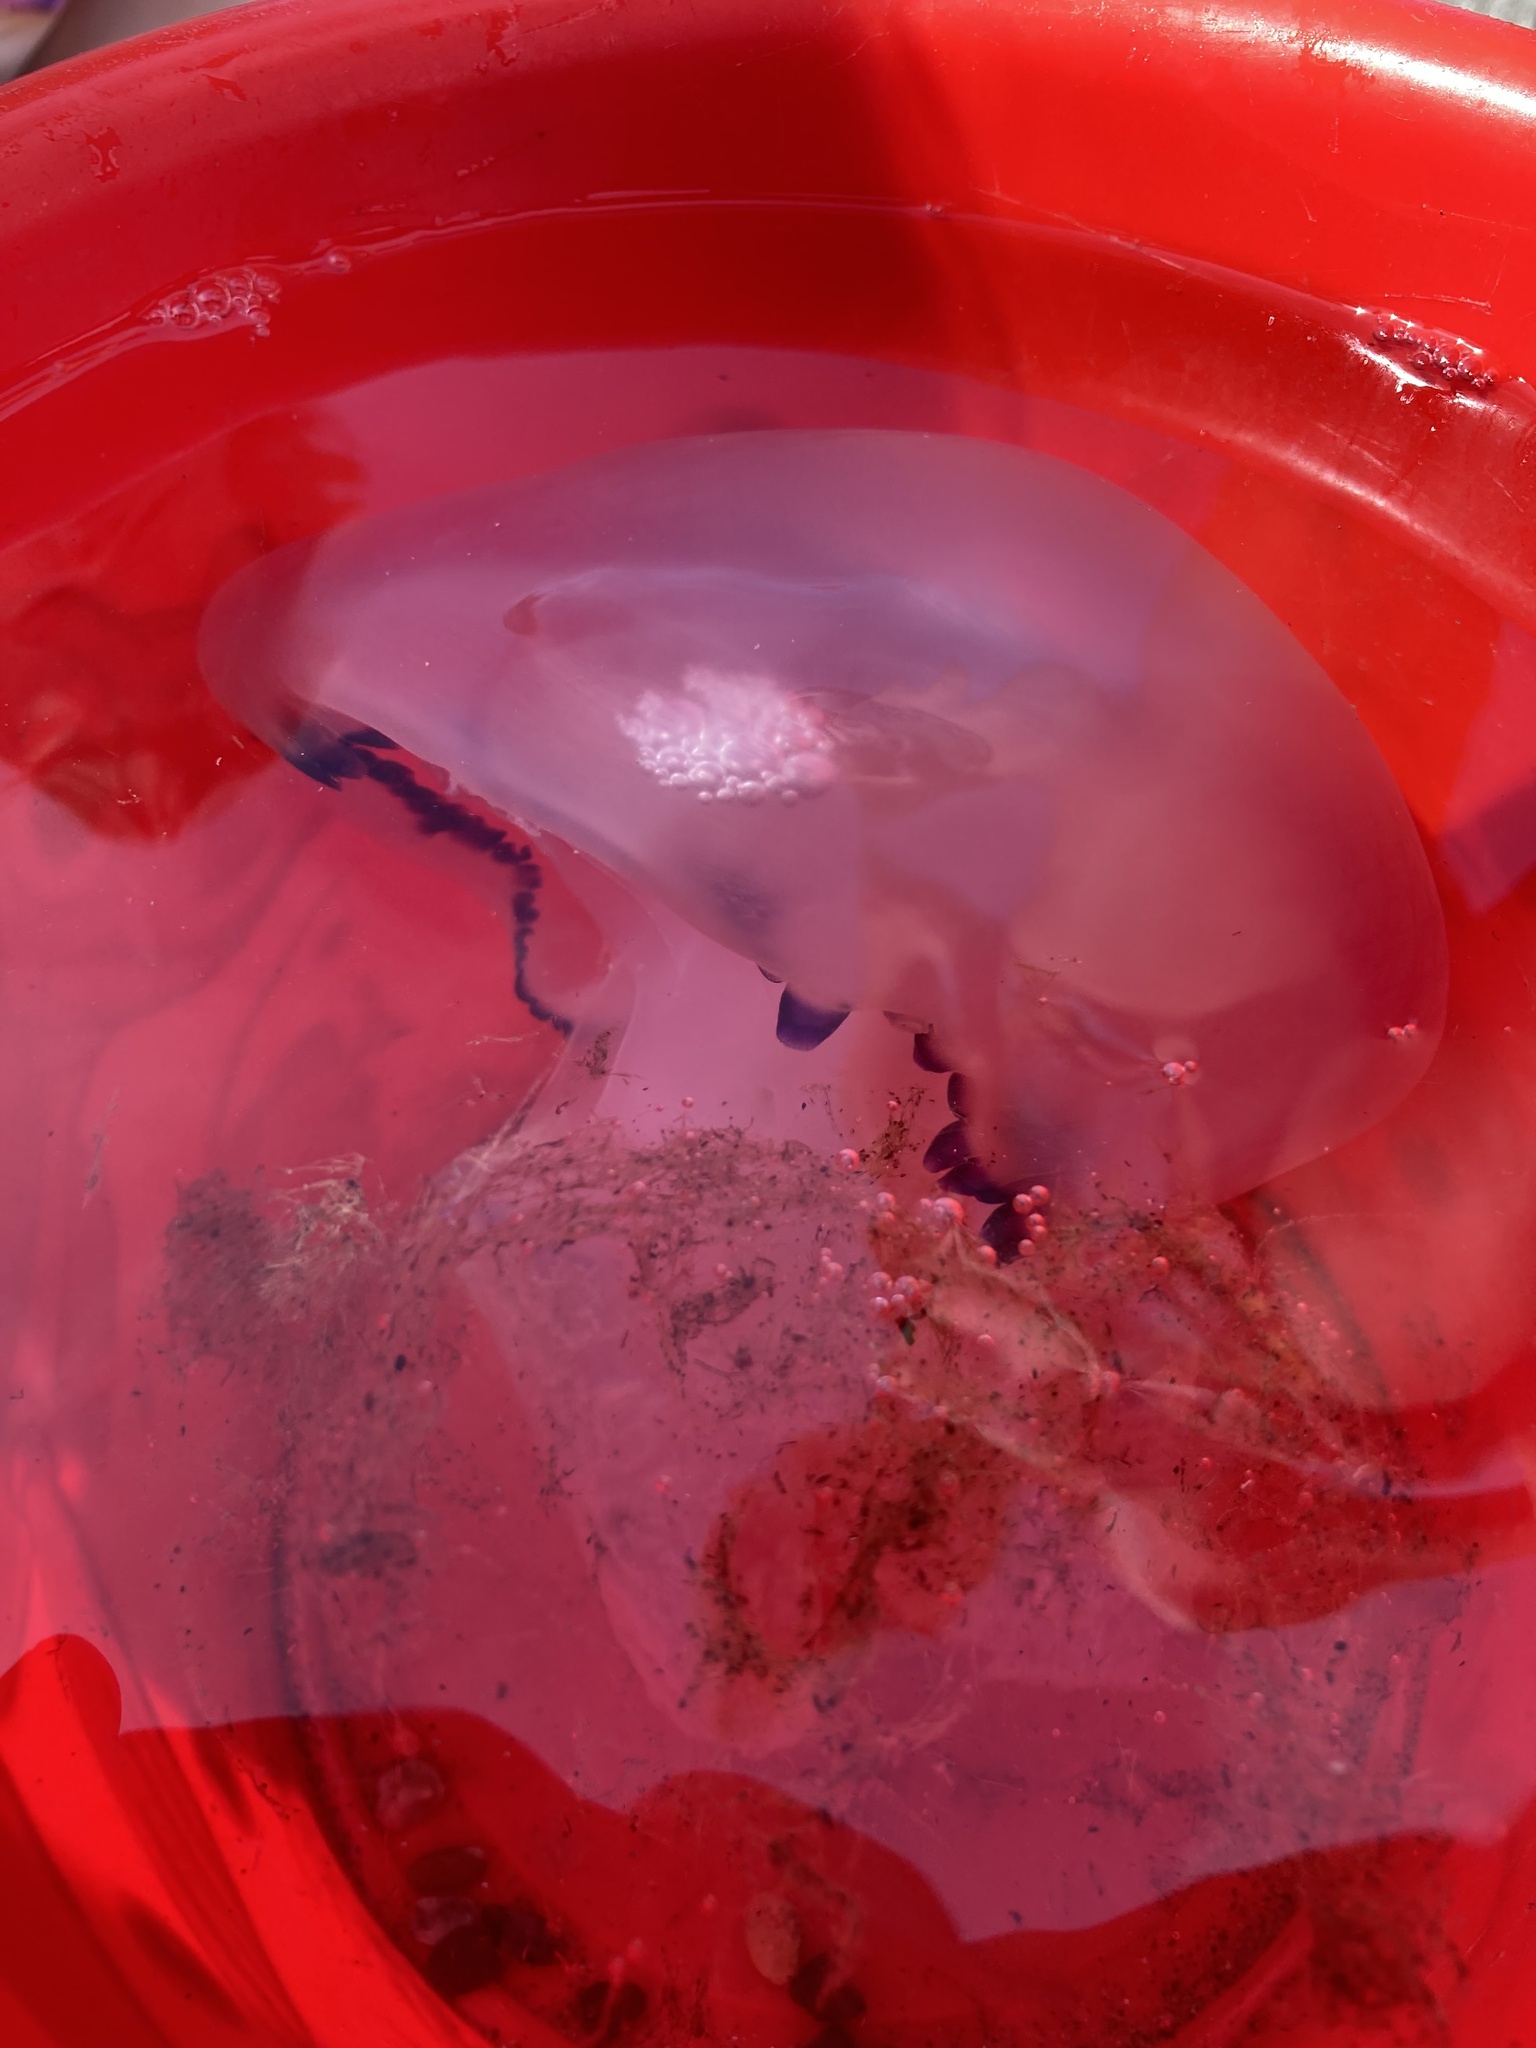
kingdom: Animalia
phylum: Cnidaria
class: Scyphozoa
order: Rhizostomeae
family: Rhizostomatidae
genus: Rhizostoma
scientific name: Rhizostoma pulmo
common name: Barrel jellyfish
